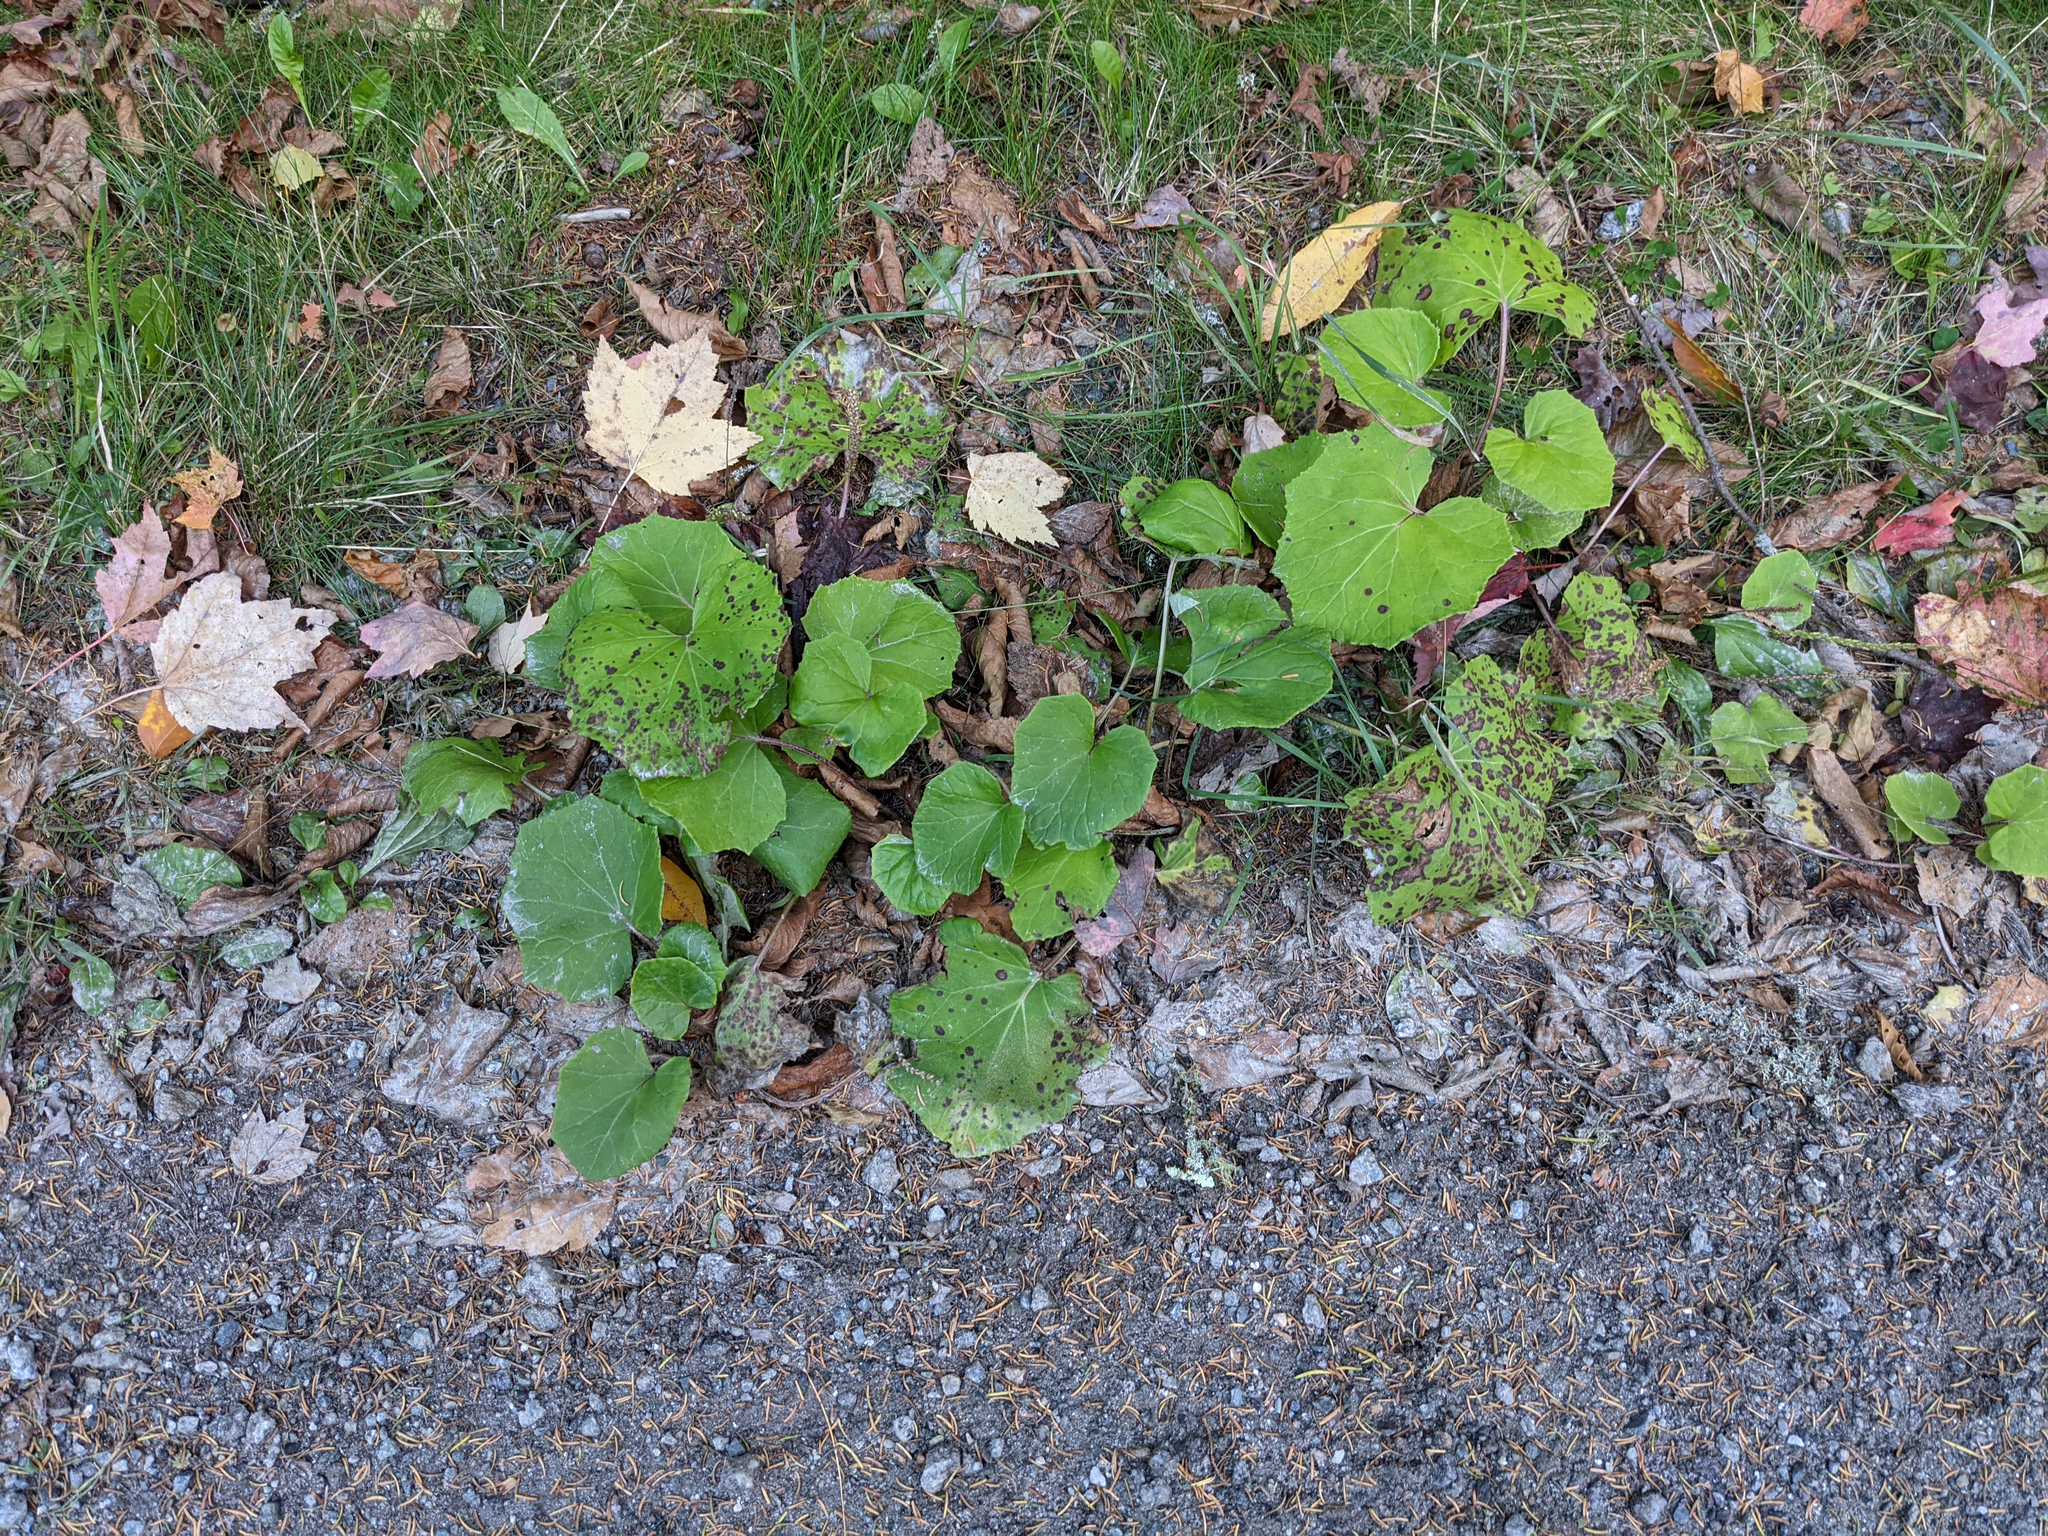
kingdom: Plantae
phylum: Tracheophyta
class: Magnoliopsida
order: Asterales
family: Asteraceae
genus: Tussilago
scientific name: Tussilago farfara
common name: Coltsfoot
